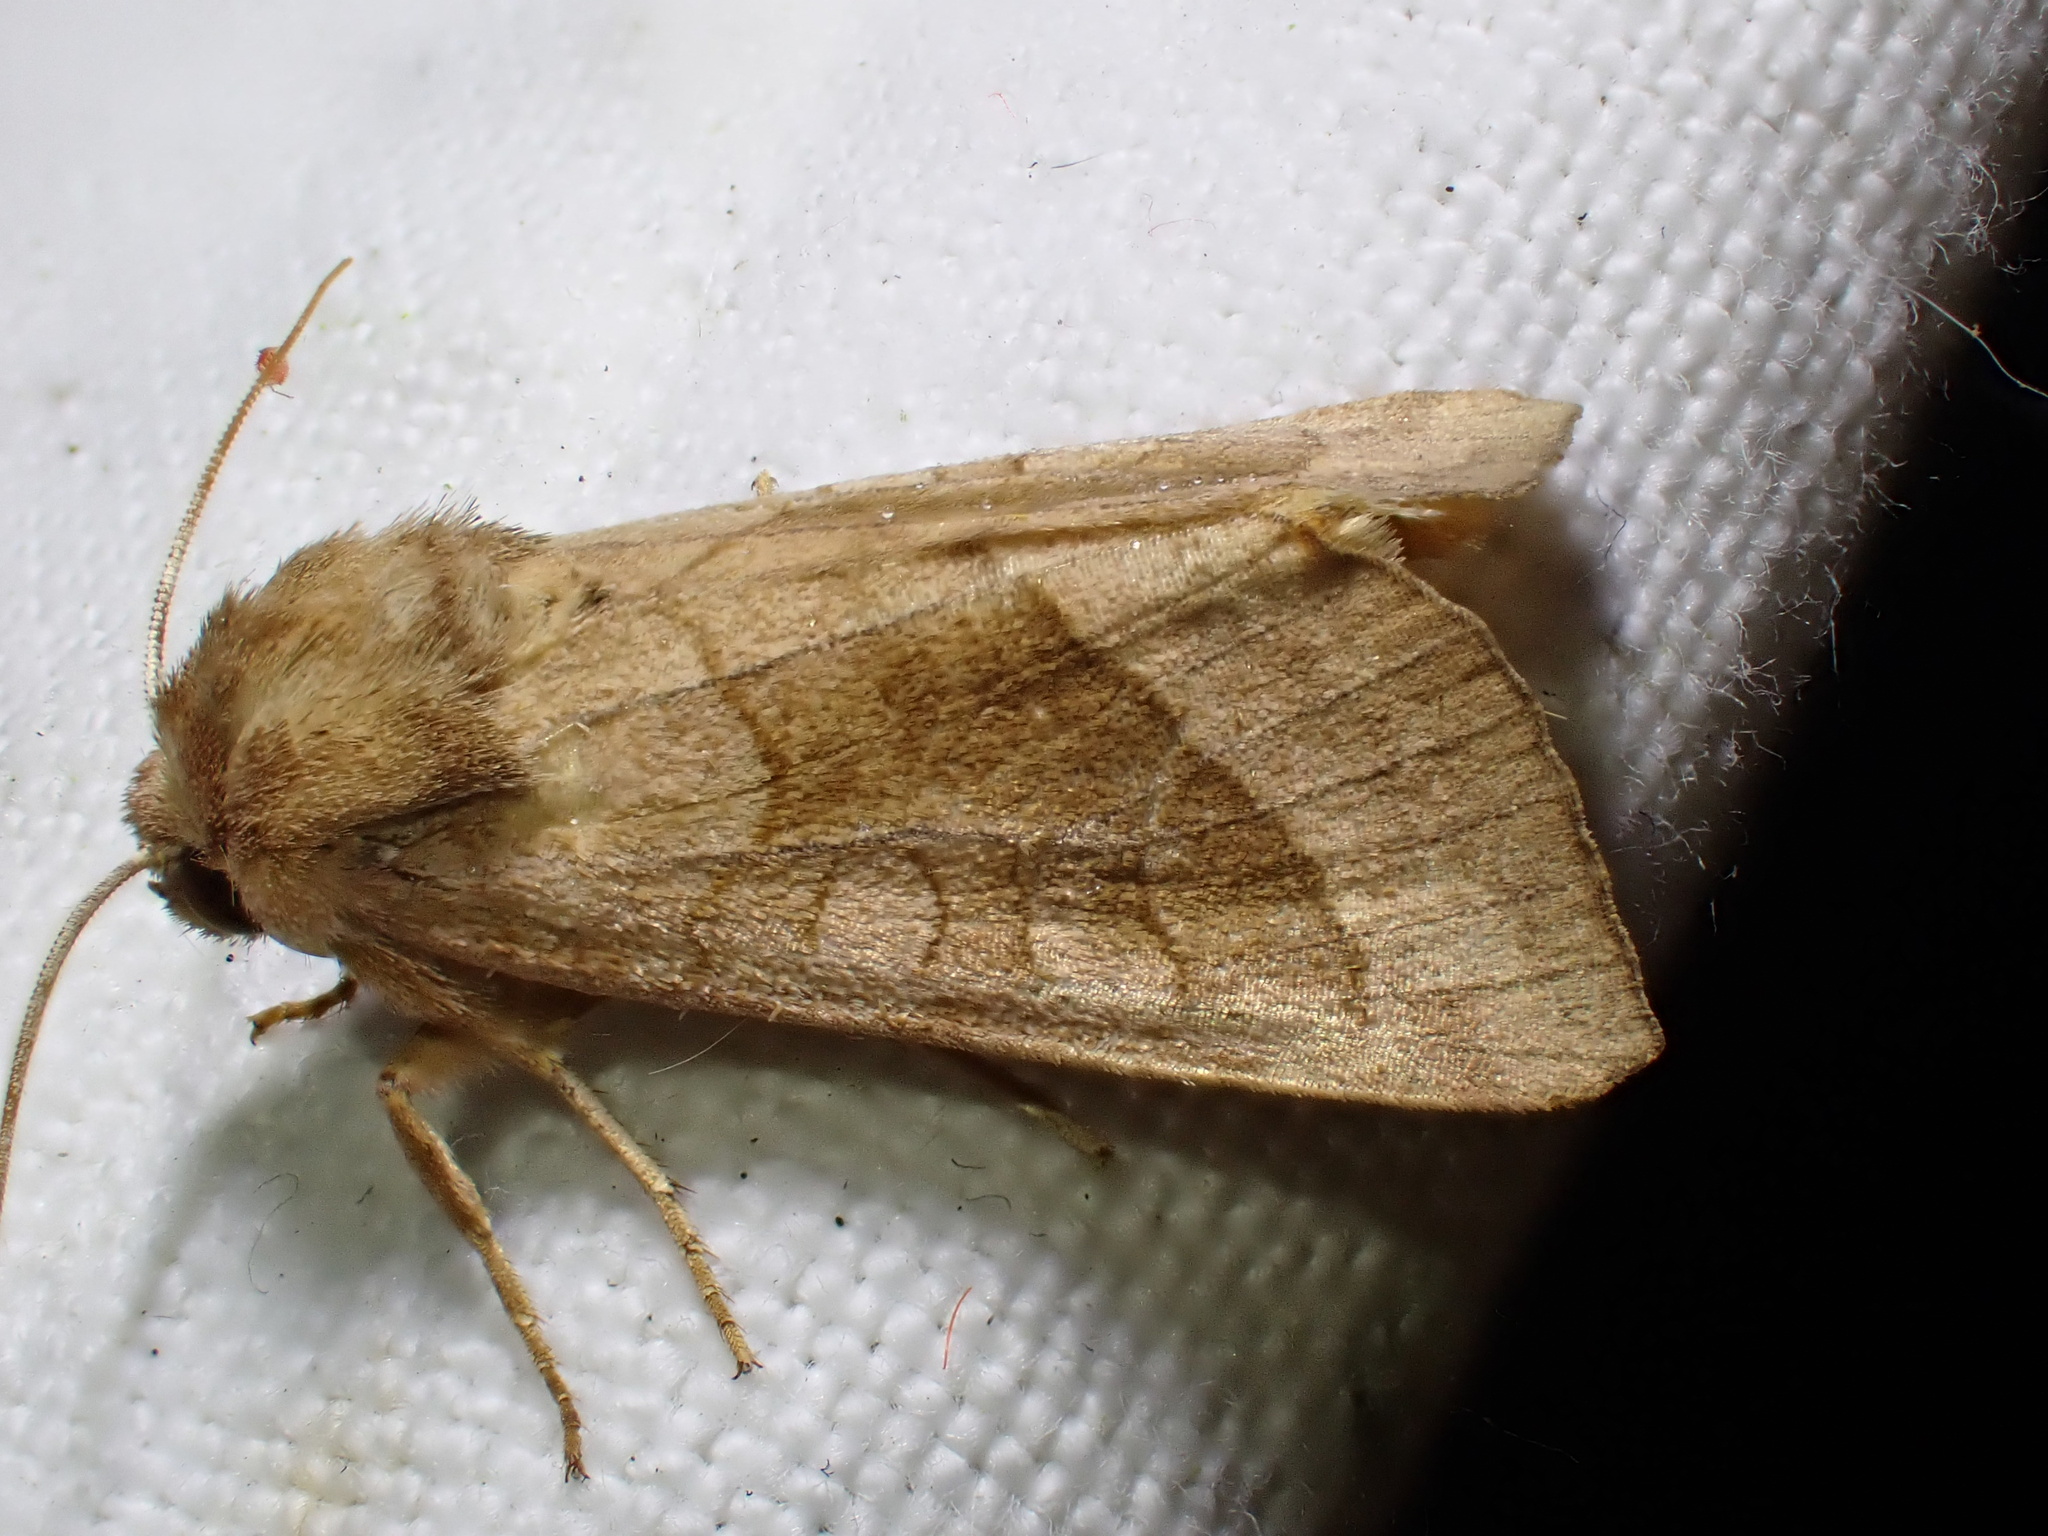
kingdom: Animalia
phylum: Arthropoda
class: Insecta
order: Lepidoptera
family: Noctuidae
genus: Hydraecia
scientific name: Hydraecia micacea
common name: Rosy rustic
